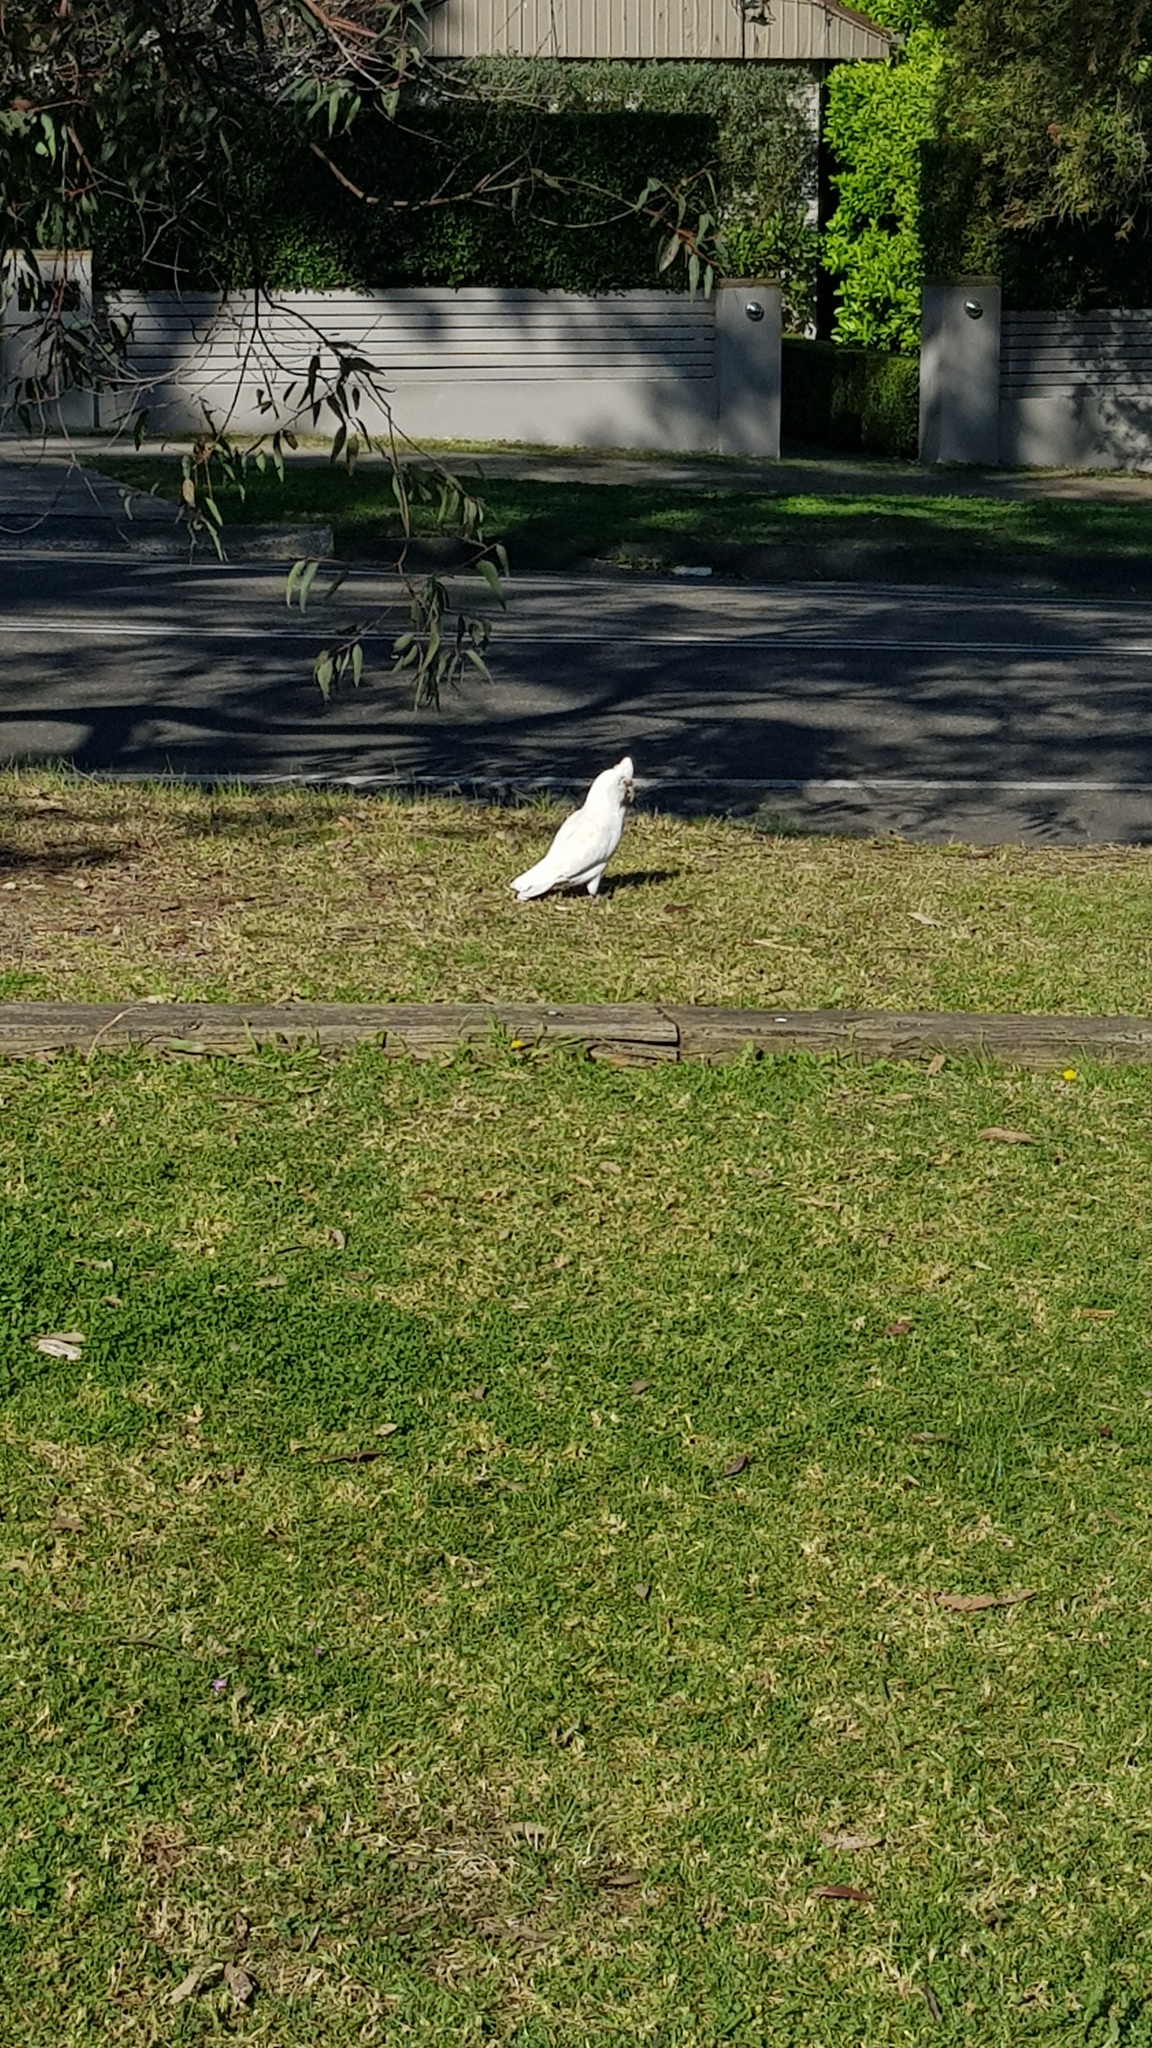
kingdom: Animalia
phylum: Chordata
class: Aves
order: Psittaciformes
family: Psittacidae
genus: Cacatua
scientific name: Cacatua tenuirostris
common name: Long-billed corella
